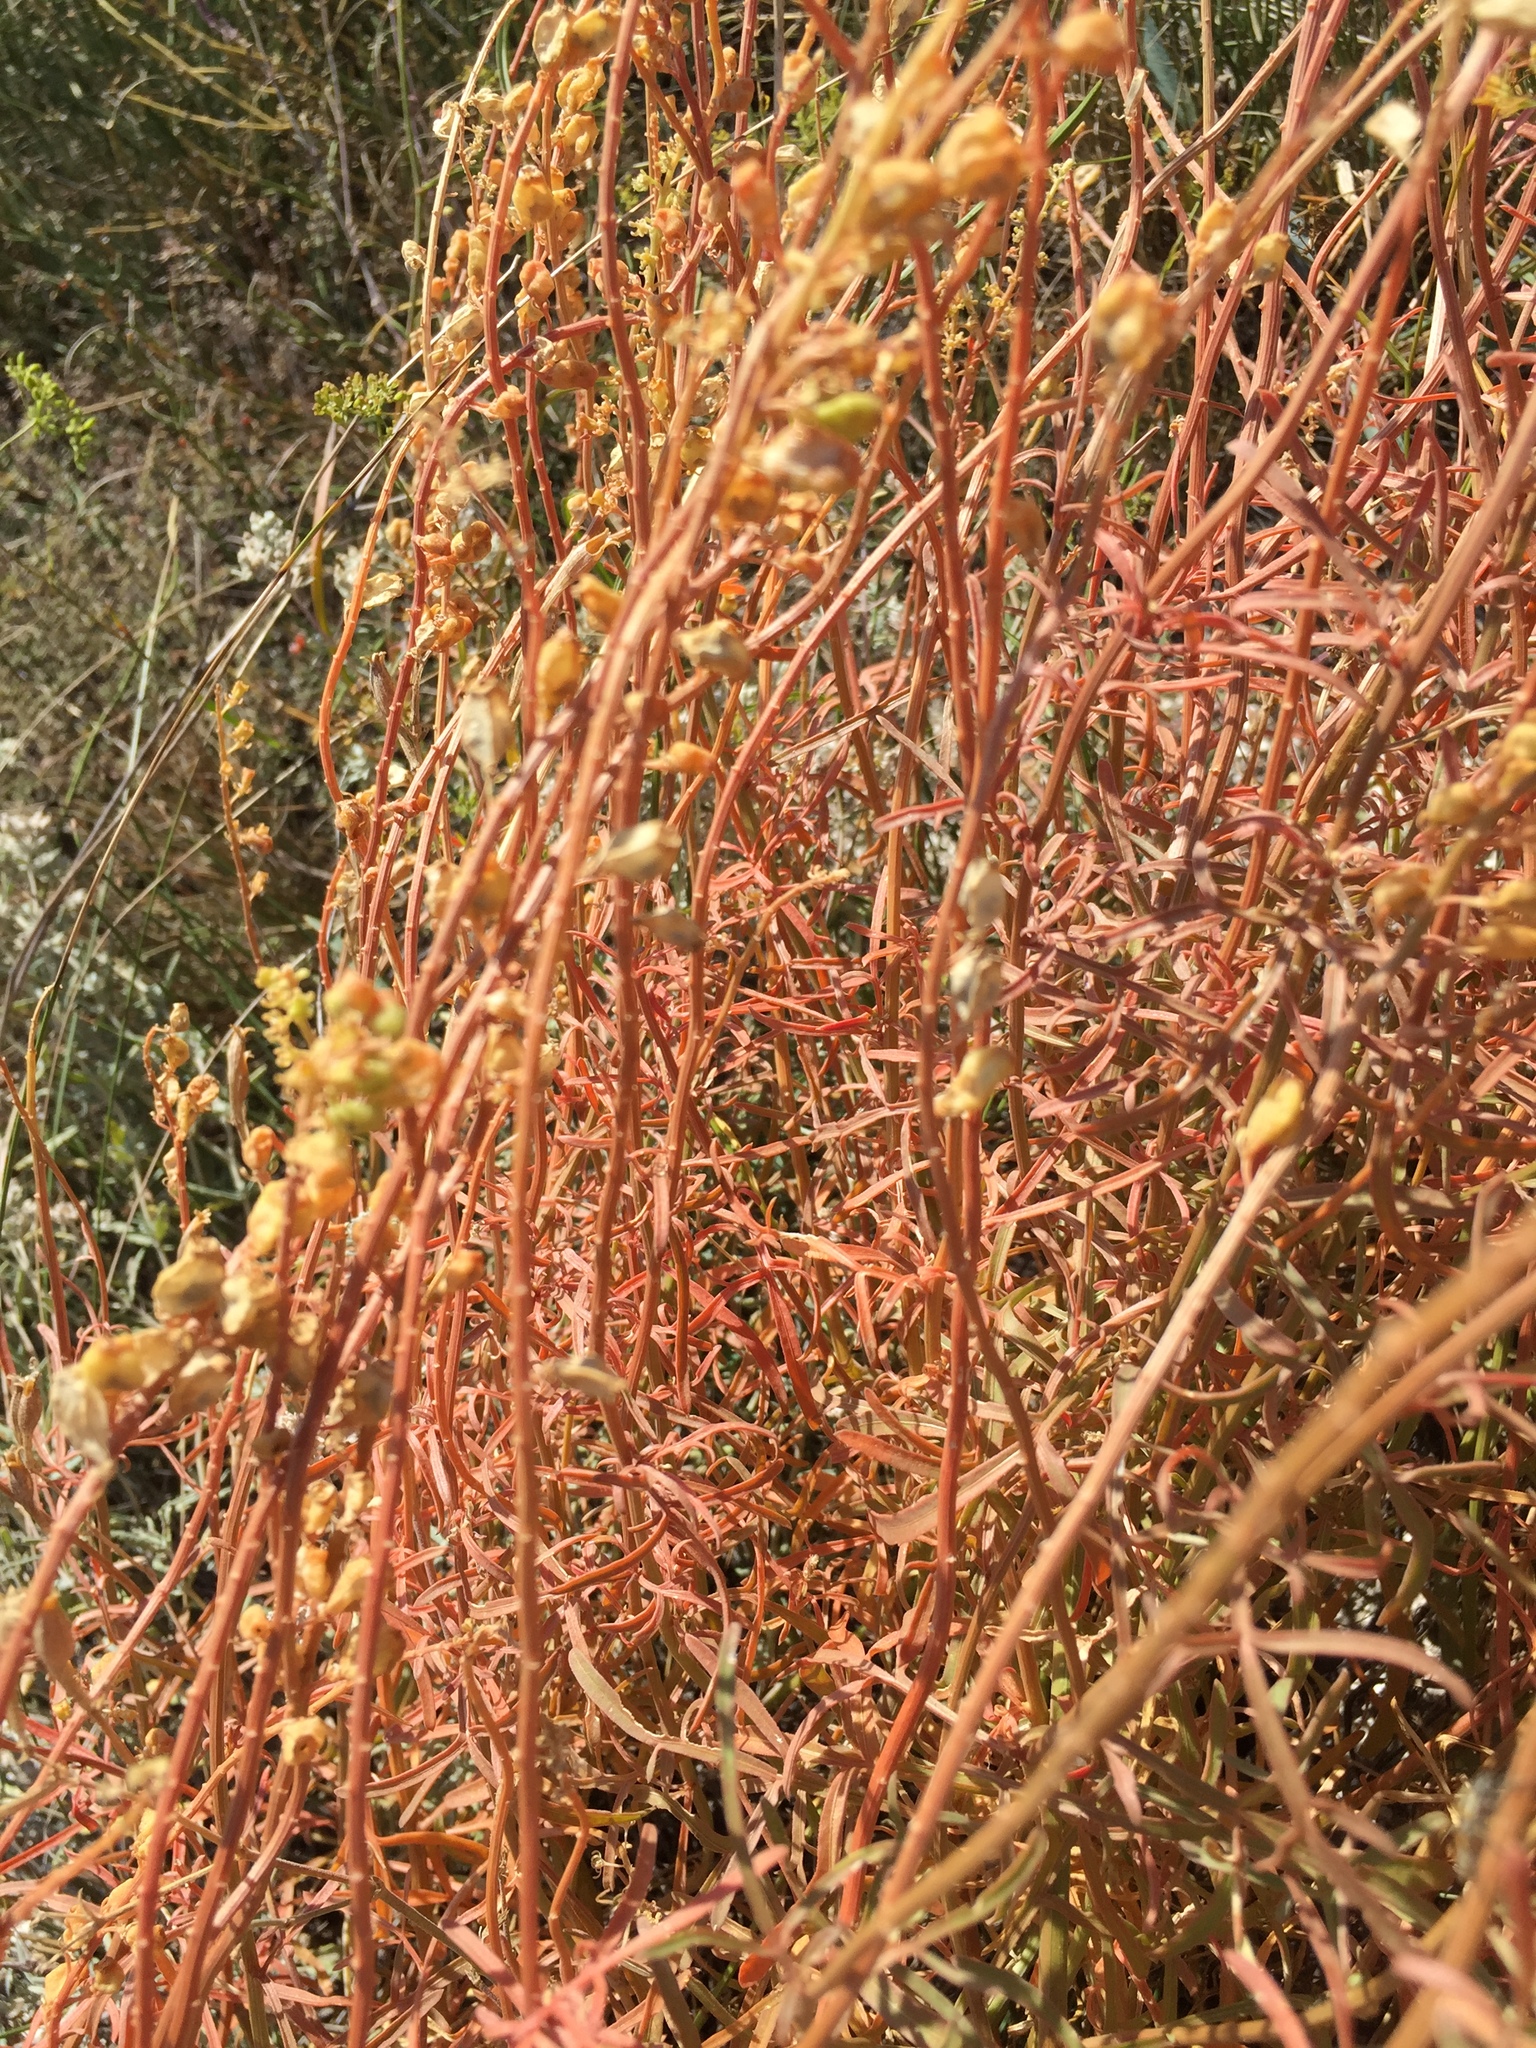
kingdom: Plantae
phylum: Tracheophyta
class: Magnoliopsida
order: Brassicales
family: Resedaceae
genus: Reseda
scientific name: Reseda lutea
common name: Wild mignonette
